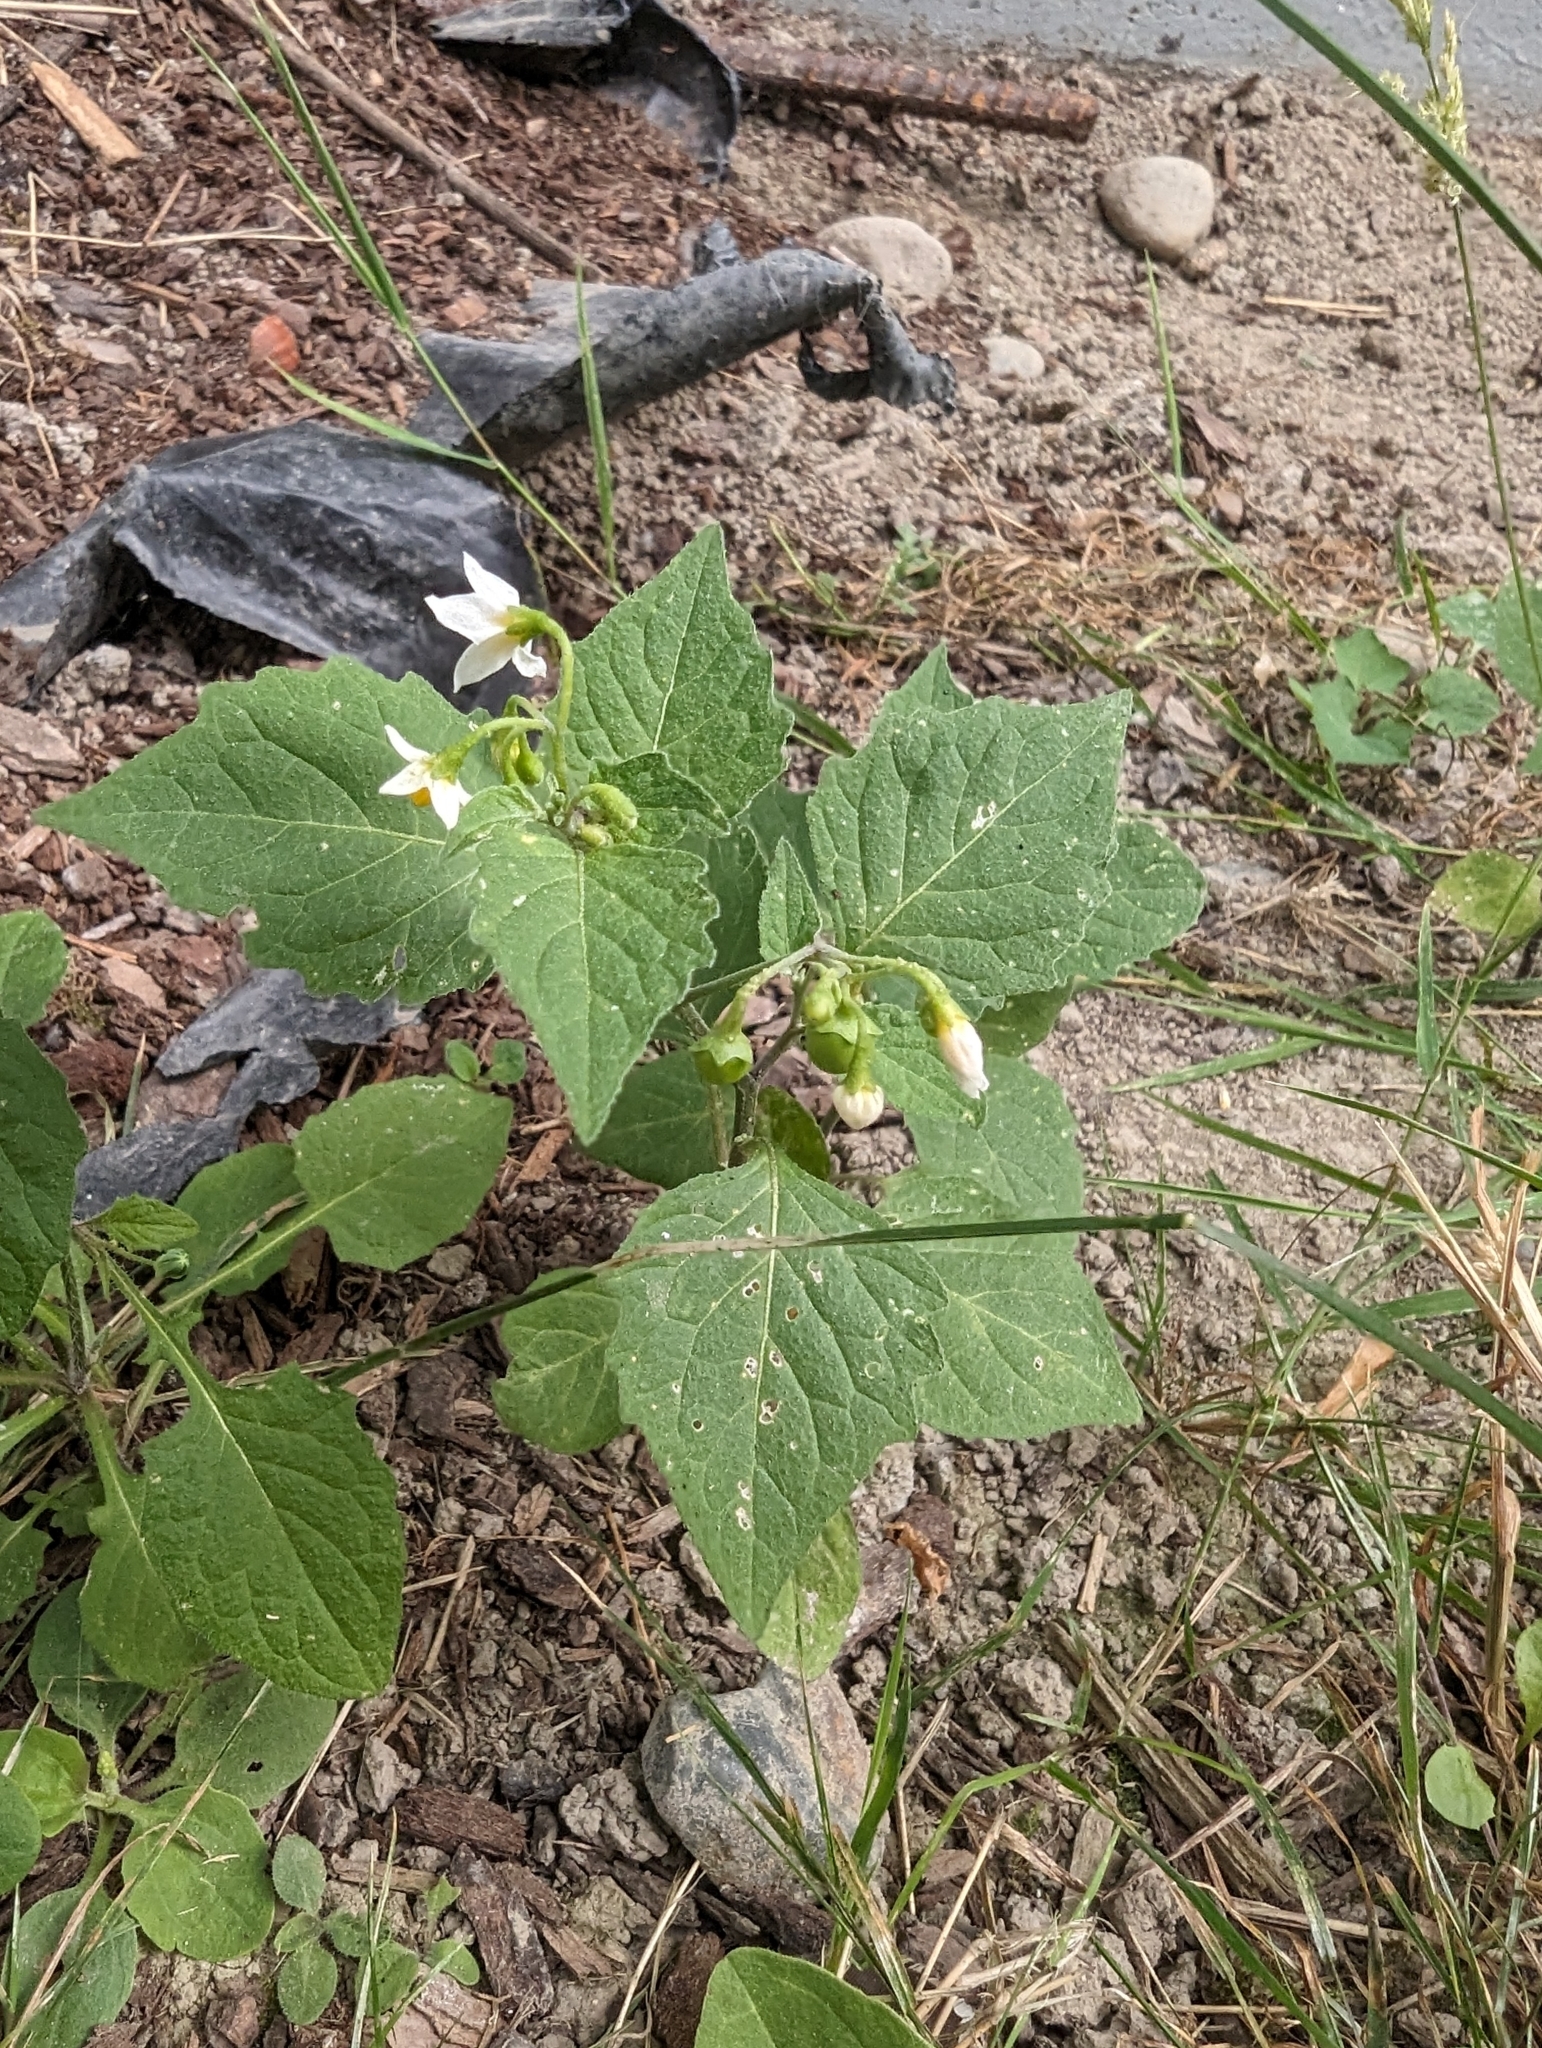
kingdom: Plantae
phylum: Tracheophyta
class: Magnoliopsida
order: Solanales
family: Solanaceae
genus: Solanum
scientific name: Solanum nigrum
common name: Black nightshade
